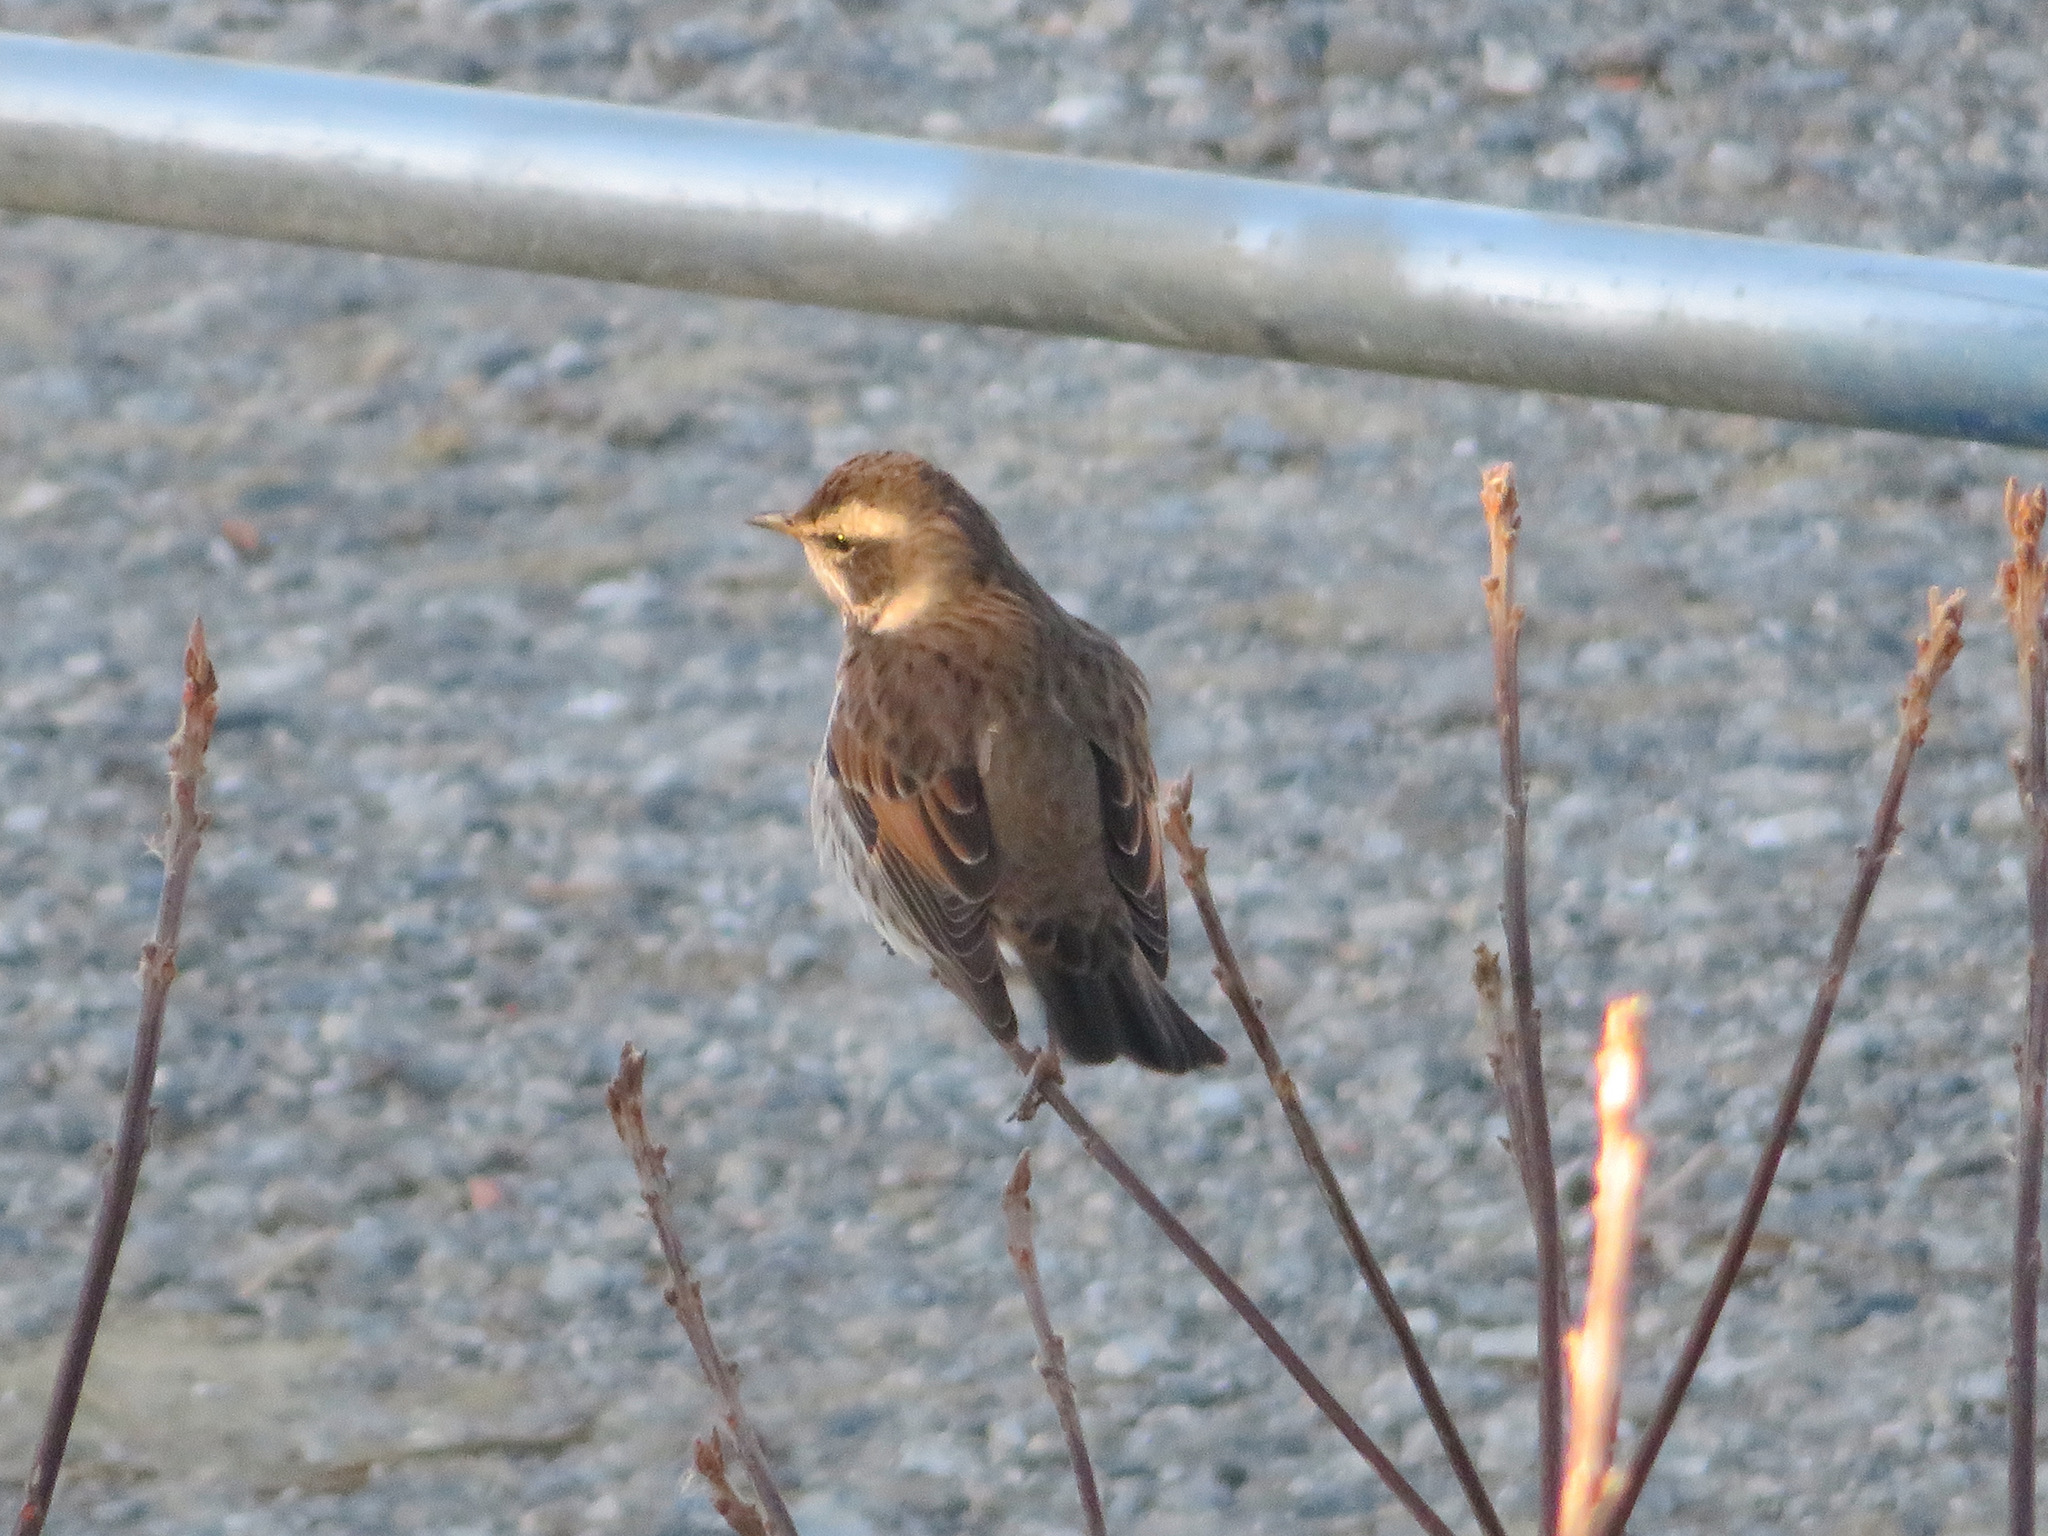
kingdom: Animalia
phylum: Chordata
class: Aves
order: Passeriformes
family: Turdidae
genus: Turdus
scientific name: Turdus eunomus
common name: Dusky thrush
